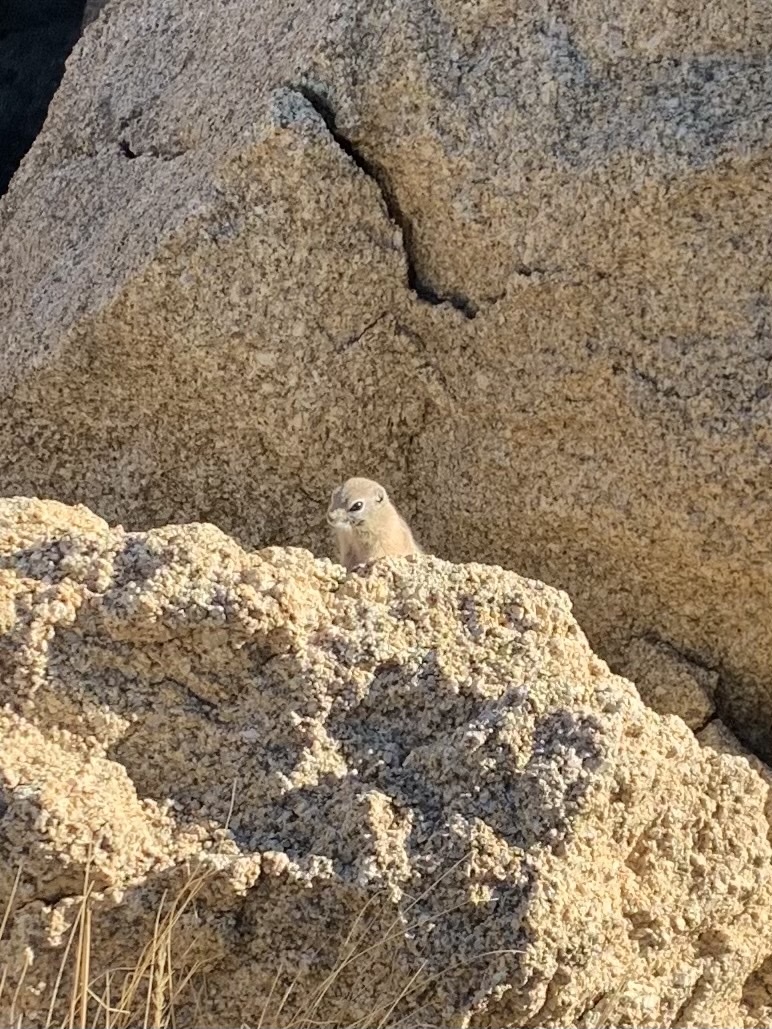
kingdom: Animalia
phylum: Chordata
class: Mammalia
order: Rodentia
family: Sciuridae
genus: Ammospermophilus
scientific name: Ammospermophilus leucurus
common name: White-tailed antelope squirrel
